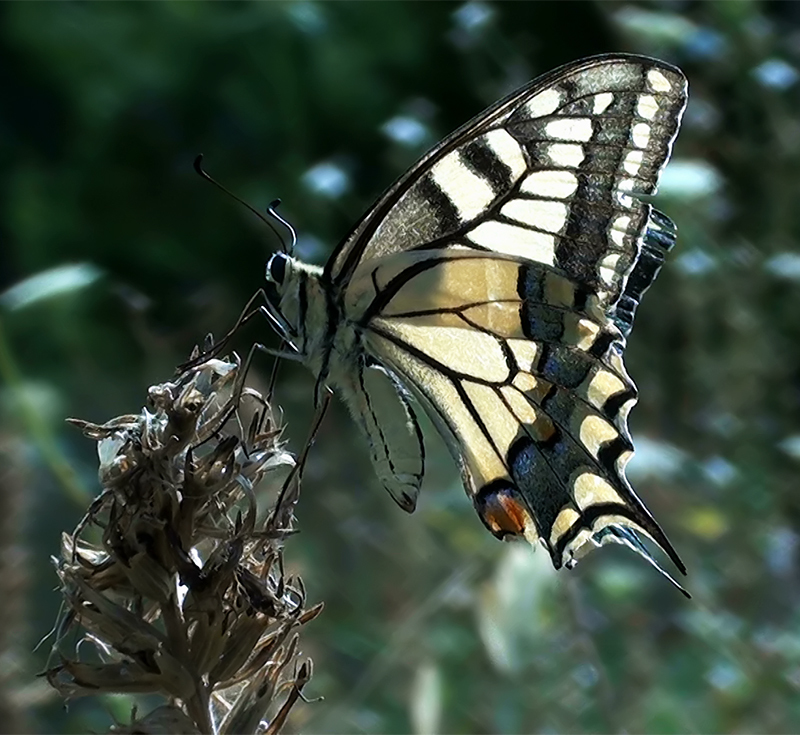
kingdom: Animalia
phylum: Arthropoda
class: Insecta
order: Lepidoptera
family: Papilionidae
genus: Papilio
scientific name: Papilio machaon
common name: Swallowtail
